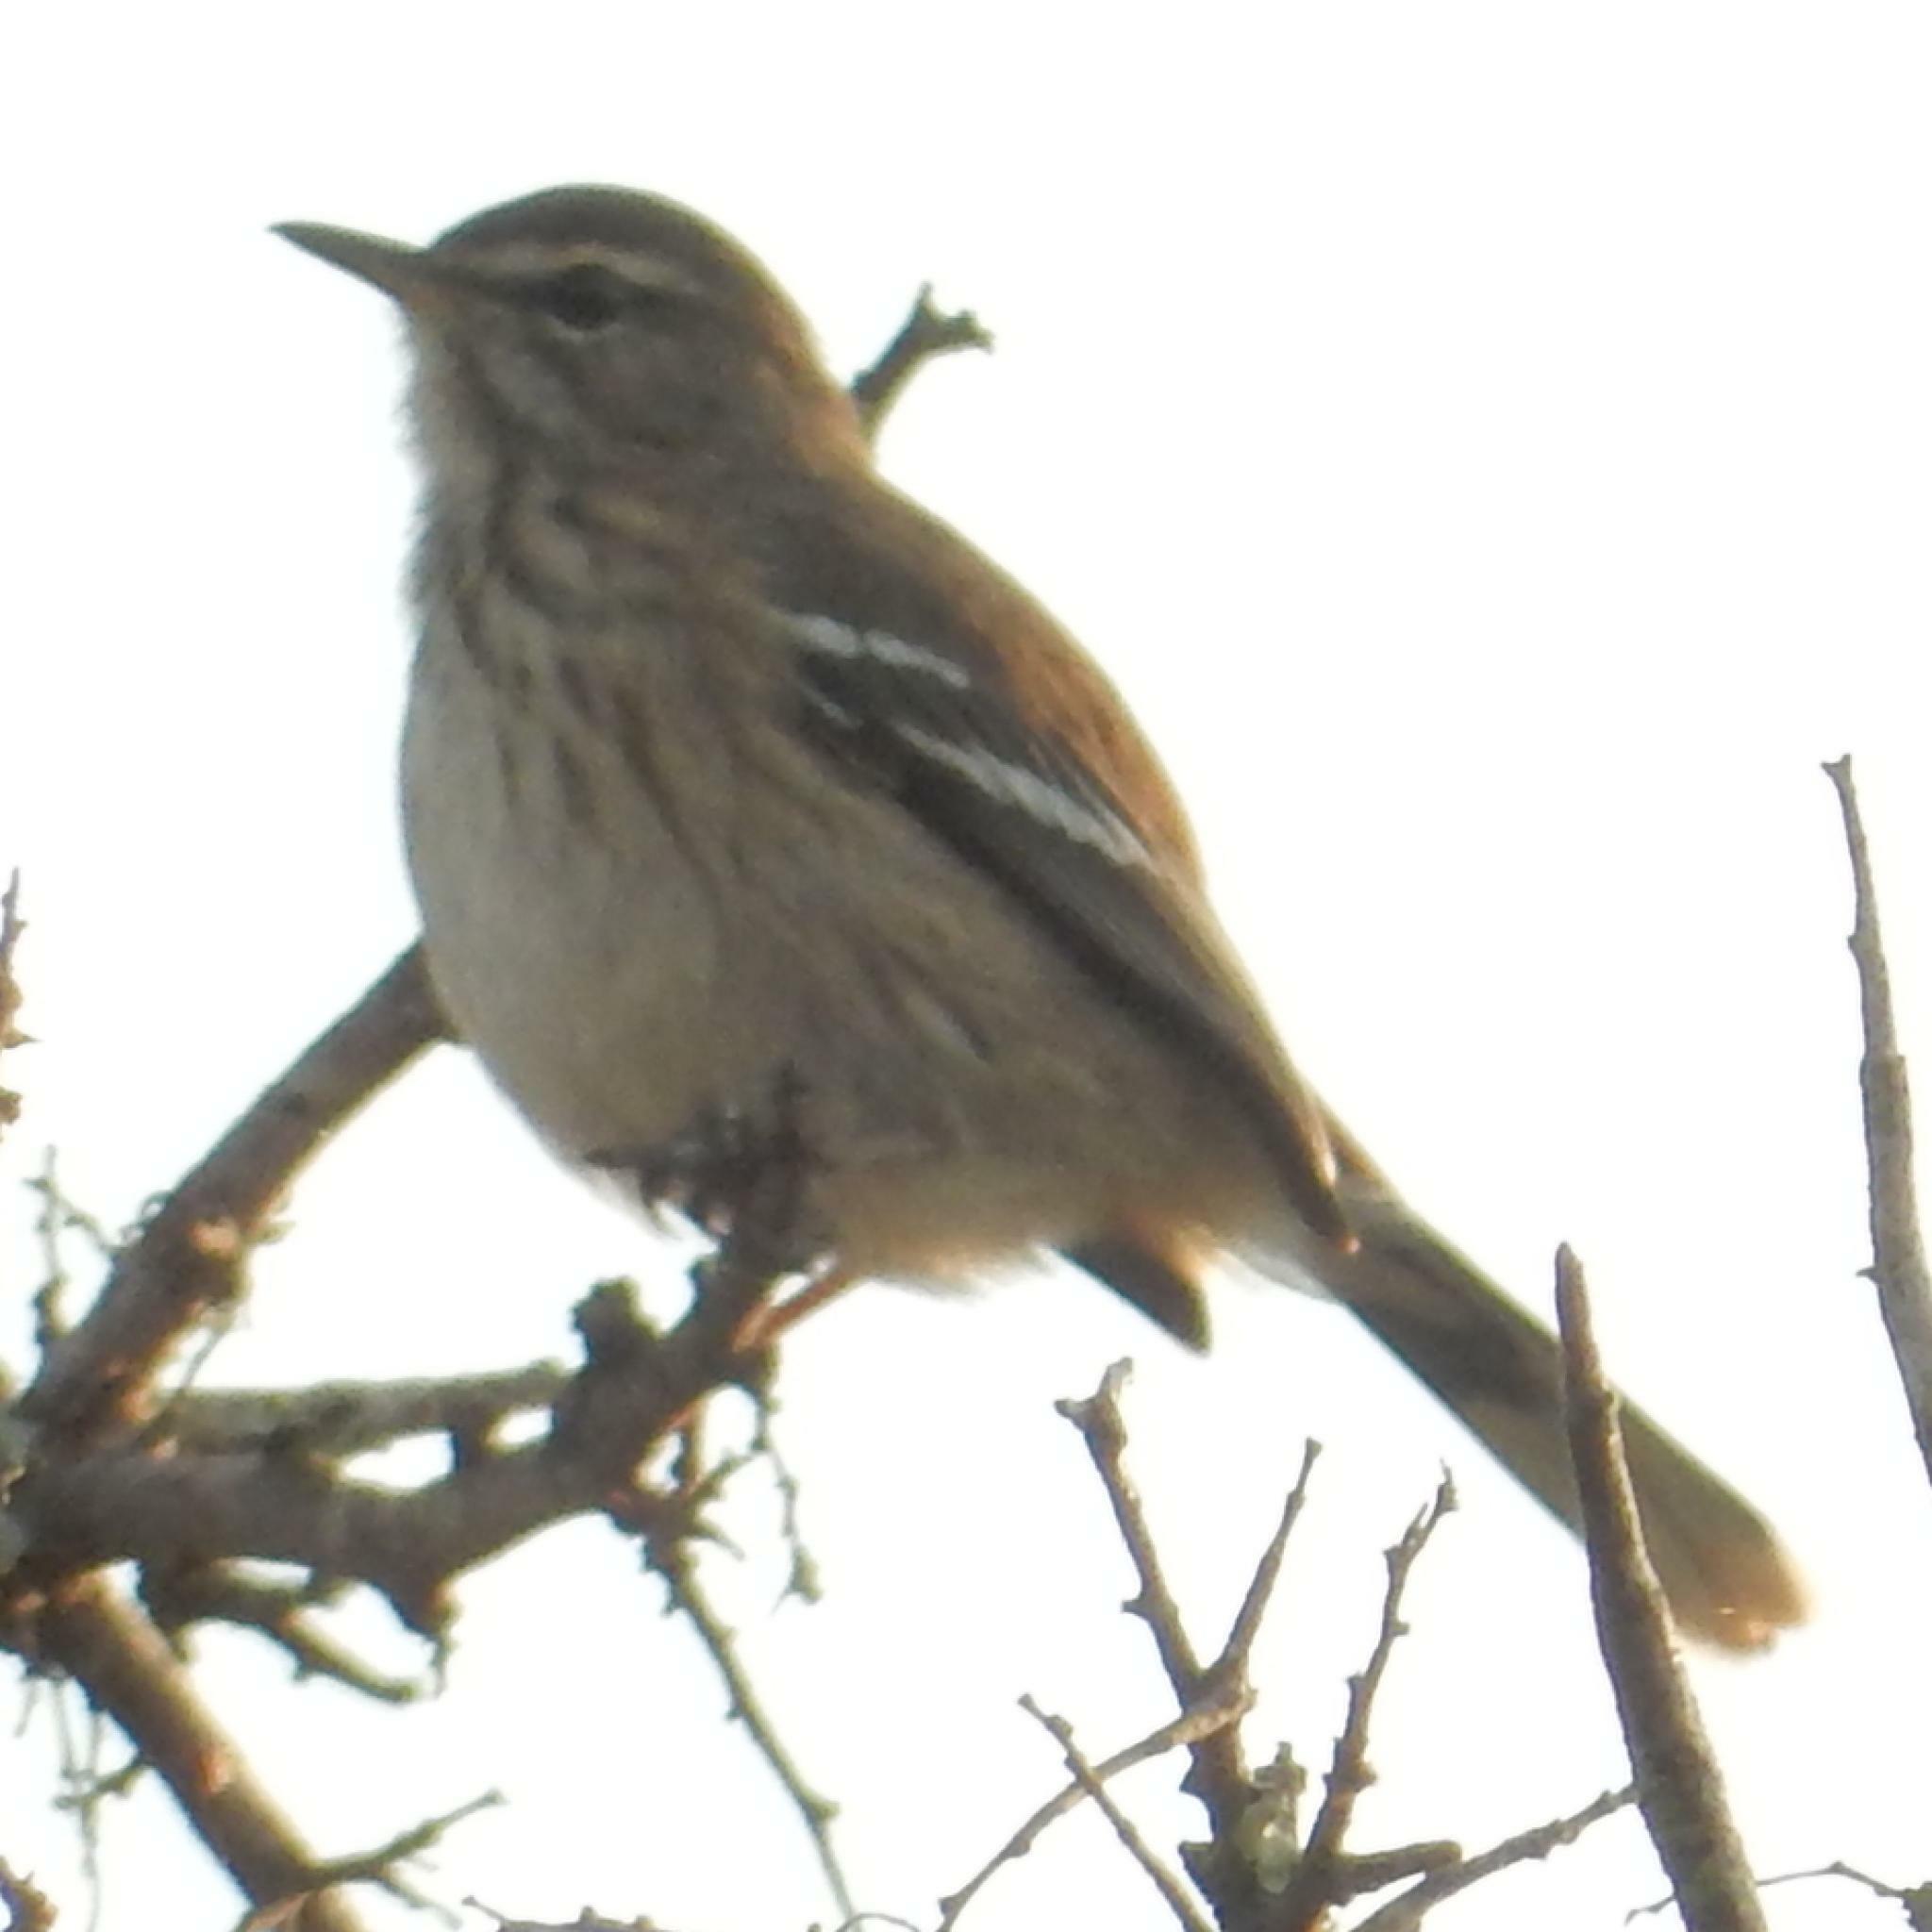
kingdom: Animalia
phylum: Chordata
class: Aves
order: Passeriformes
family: Muscicapidae
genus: Erythropygia
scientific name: Erythropygia leucophrys
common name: White-browed scrub robin
